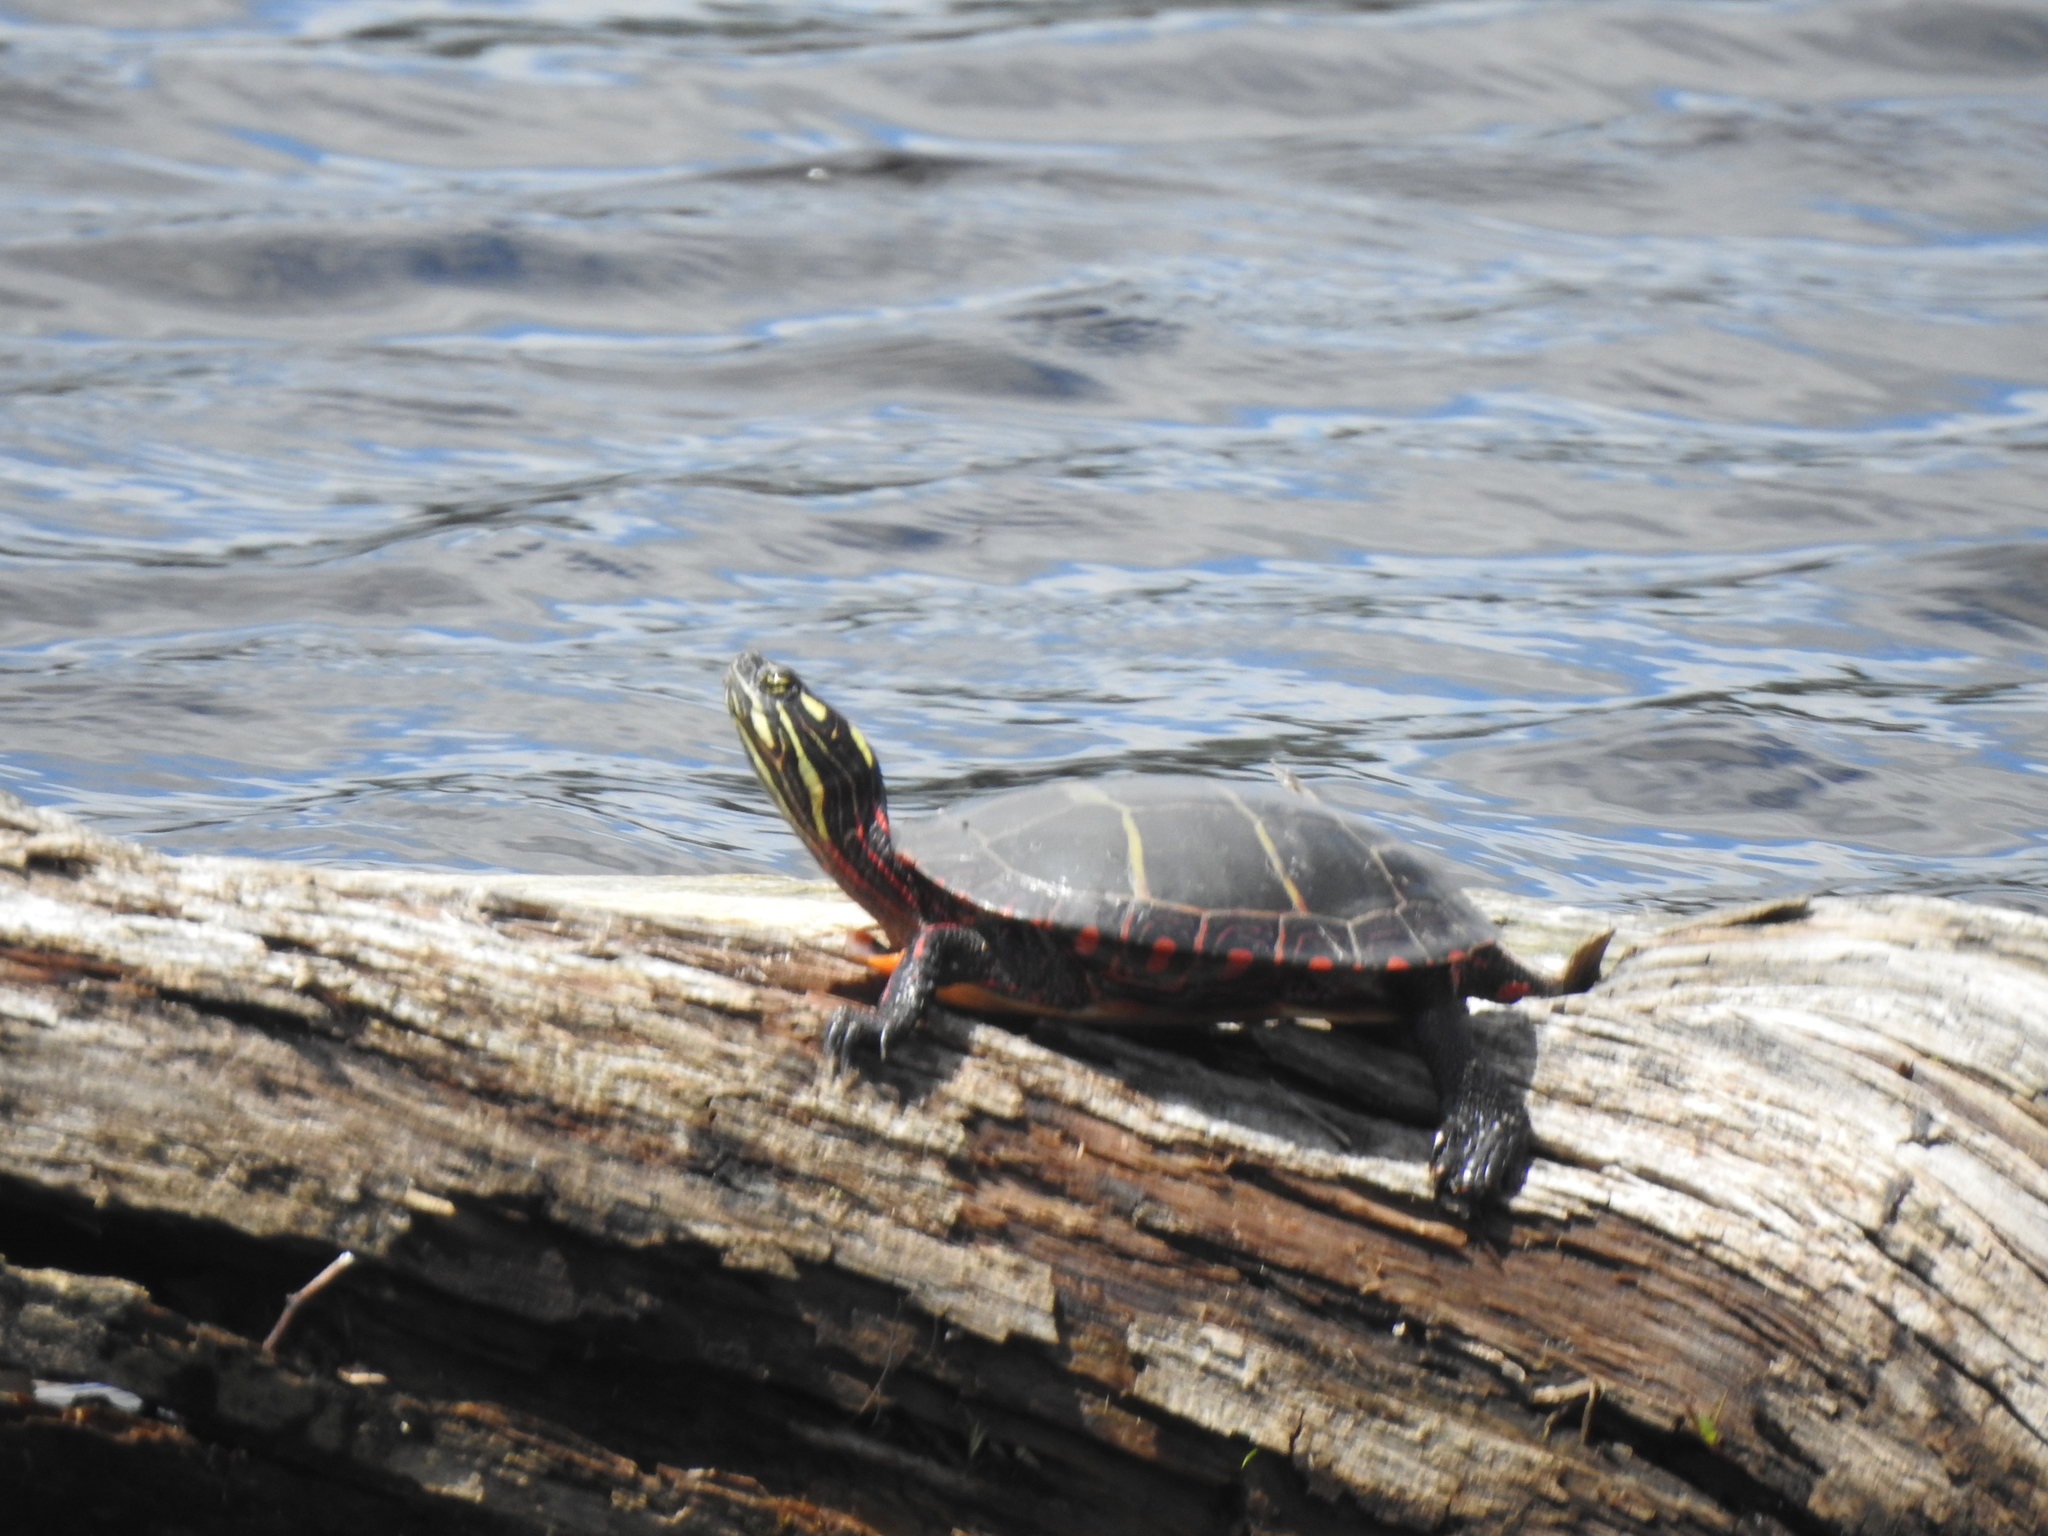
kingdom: Animalia
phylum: Chordata
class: Testudines
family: Emydidae
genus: Chrysemys
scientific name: Chrysemys picta
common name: Painted turtle
